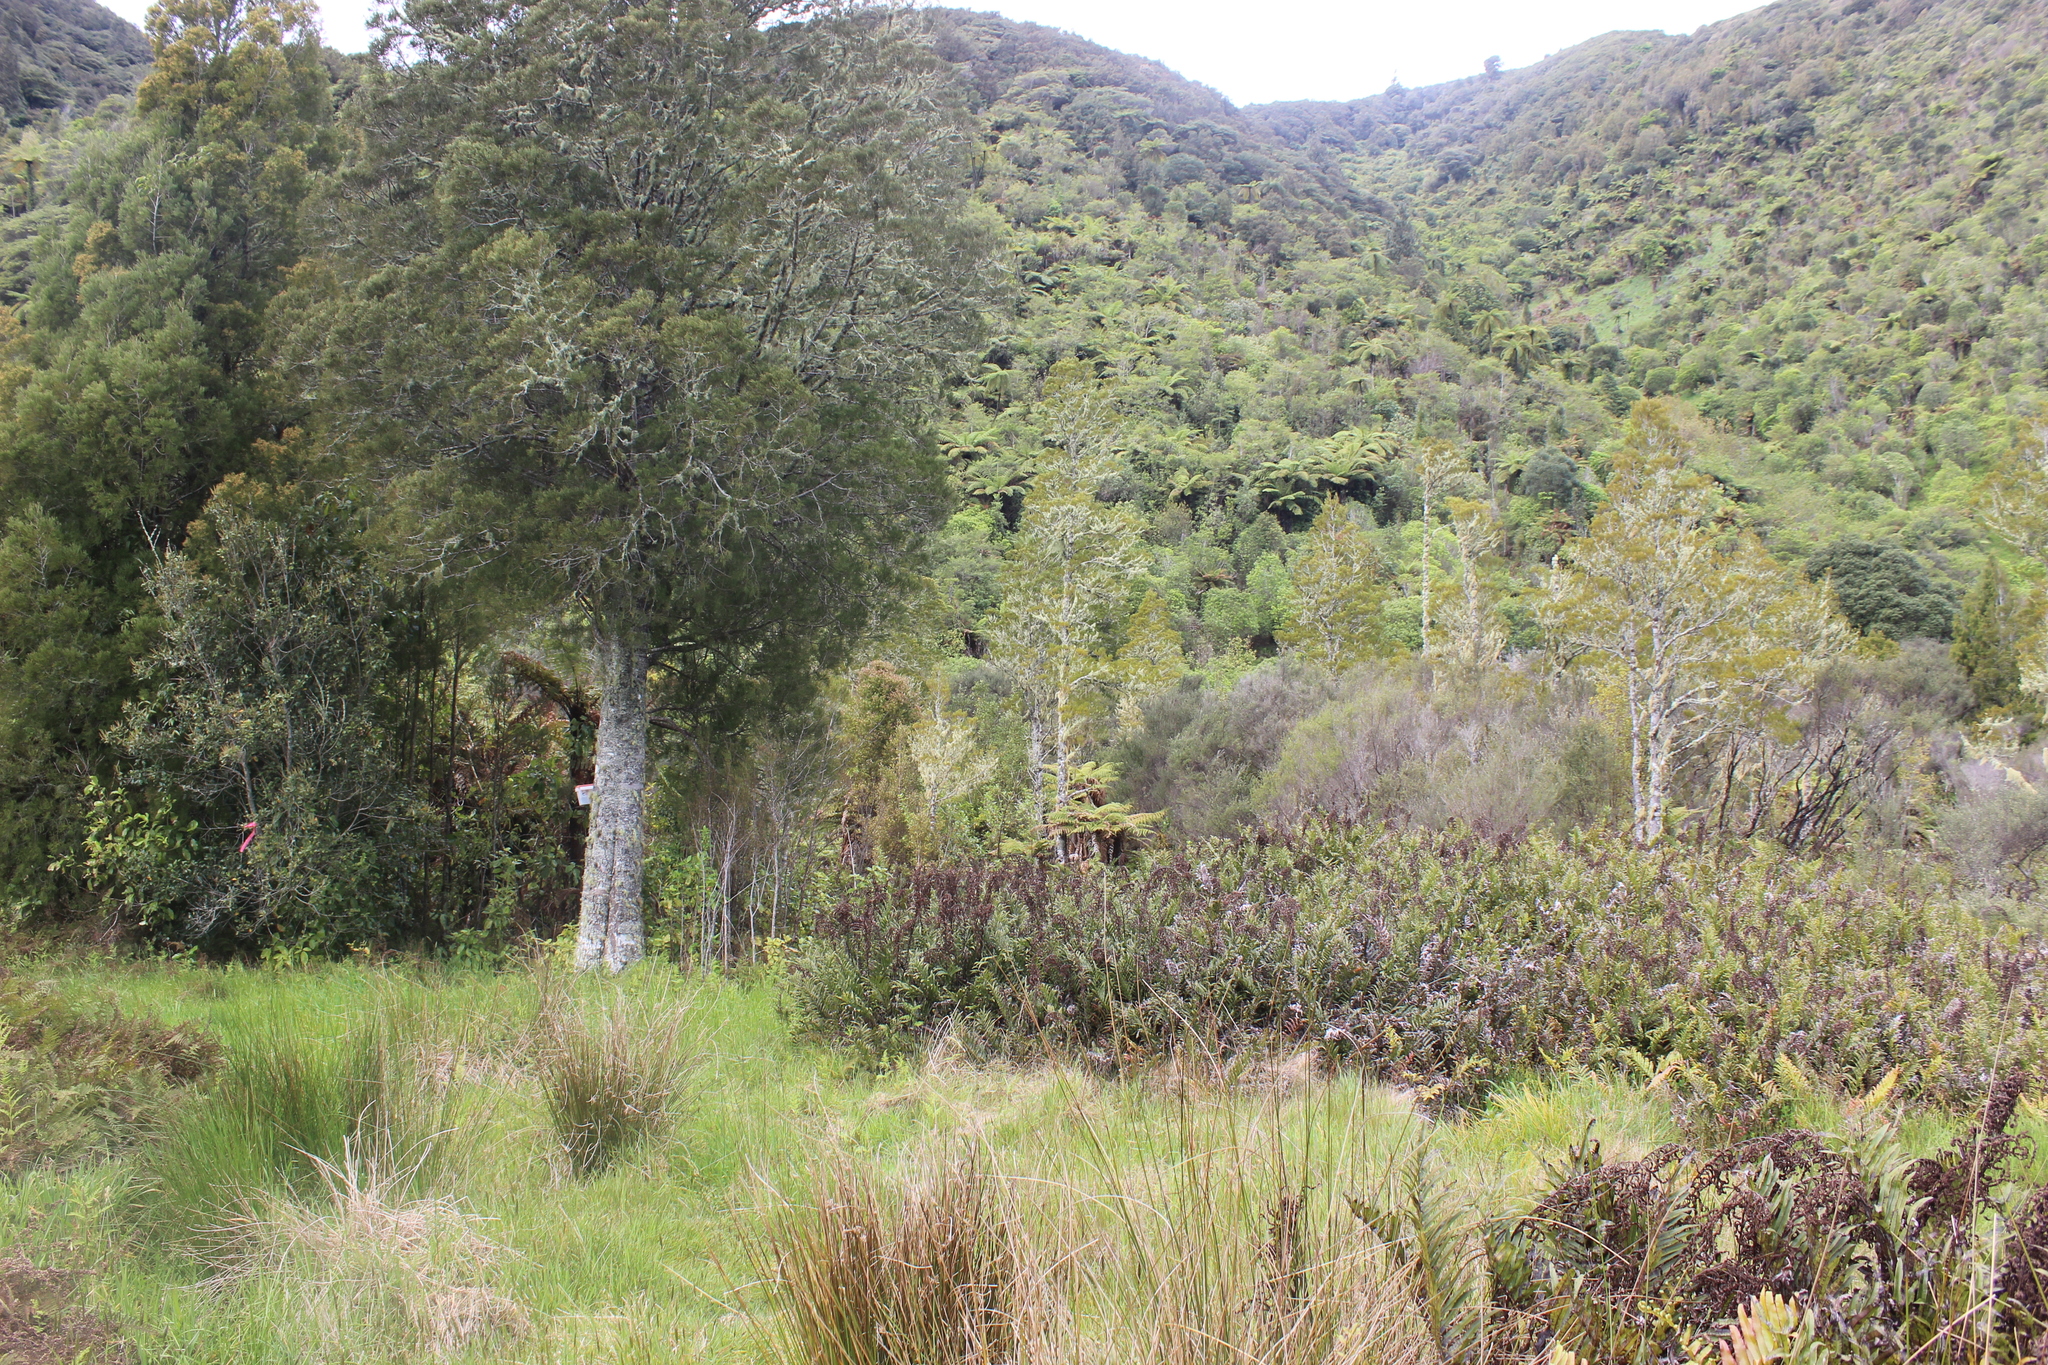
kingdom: Plantae
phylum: Tracheophyta
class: Pinopsida
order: Pinales
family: Podocarpaceae
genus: Dacrycarpus
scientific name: Dacrycarpus dacrydioides
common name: White pine
